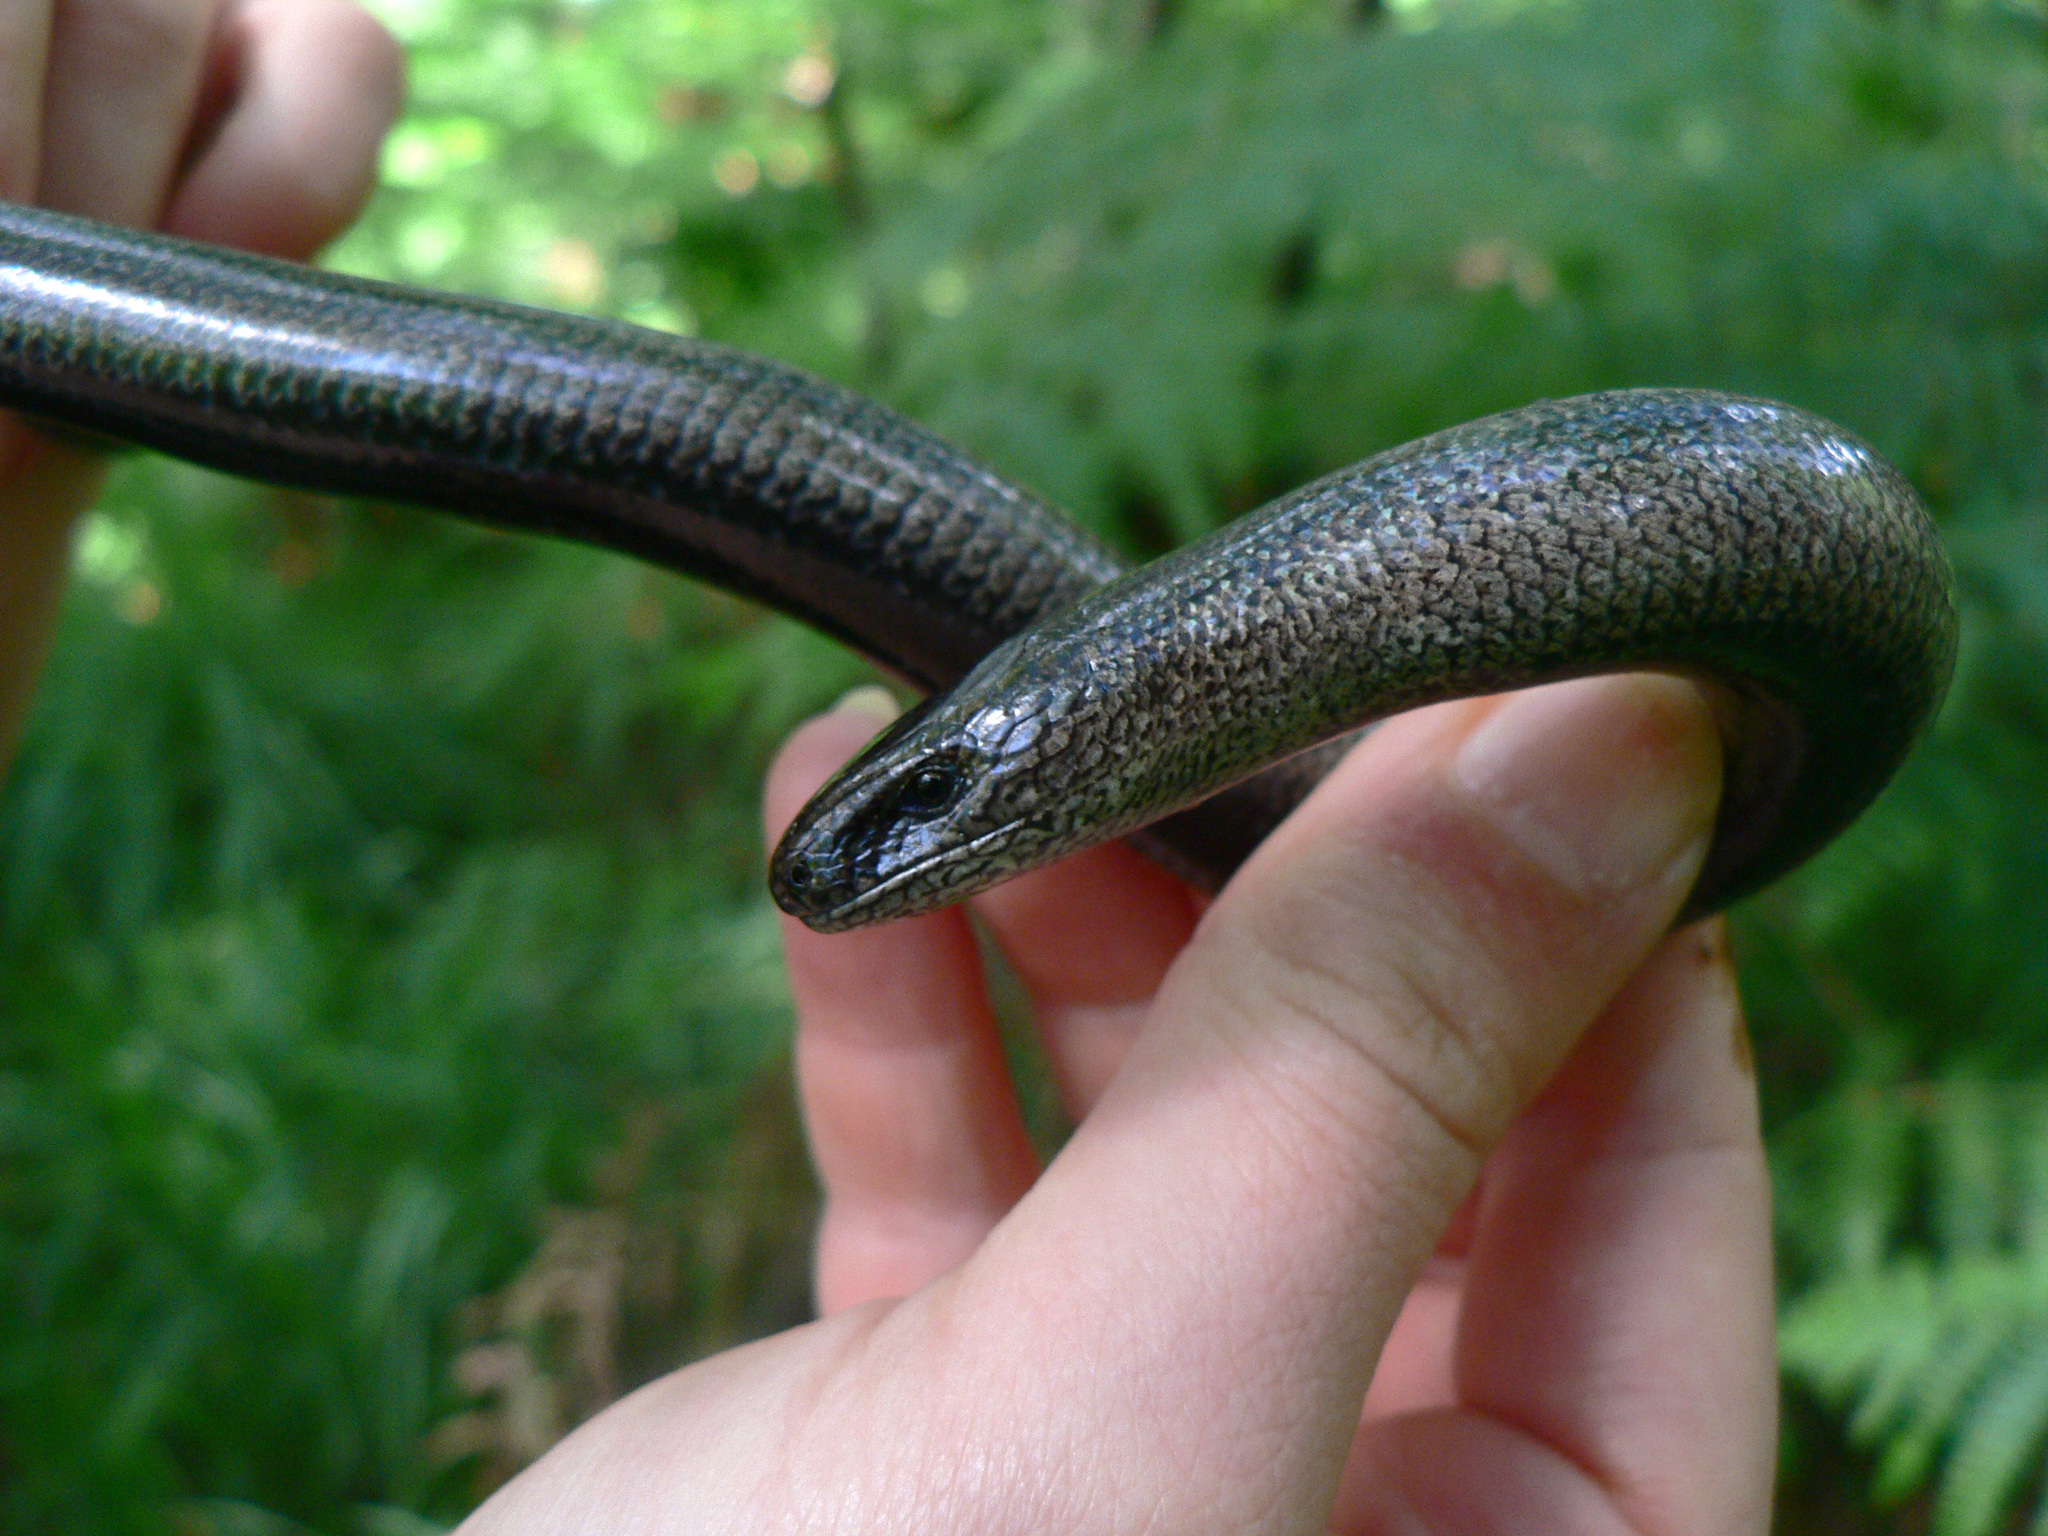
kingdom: Animalia
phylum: Chordata
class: Squamata
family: Anguidae
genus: Anguis
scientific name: Anguis fragilis
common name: Slow worm
